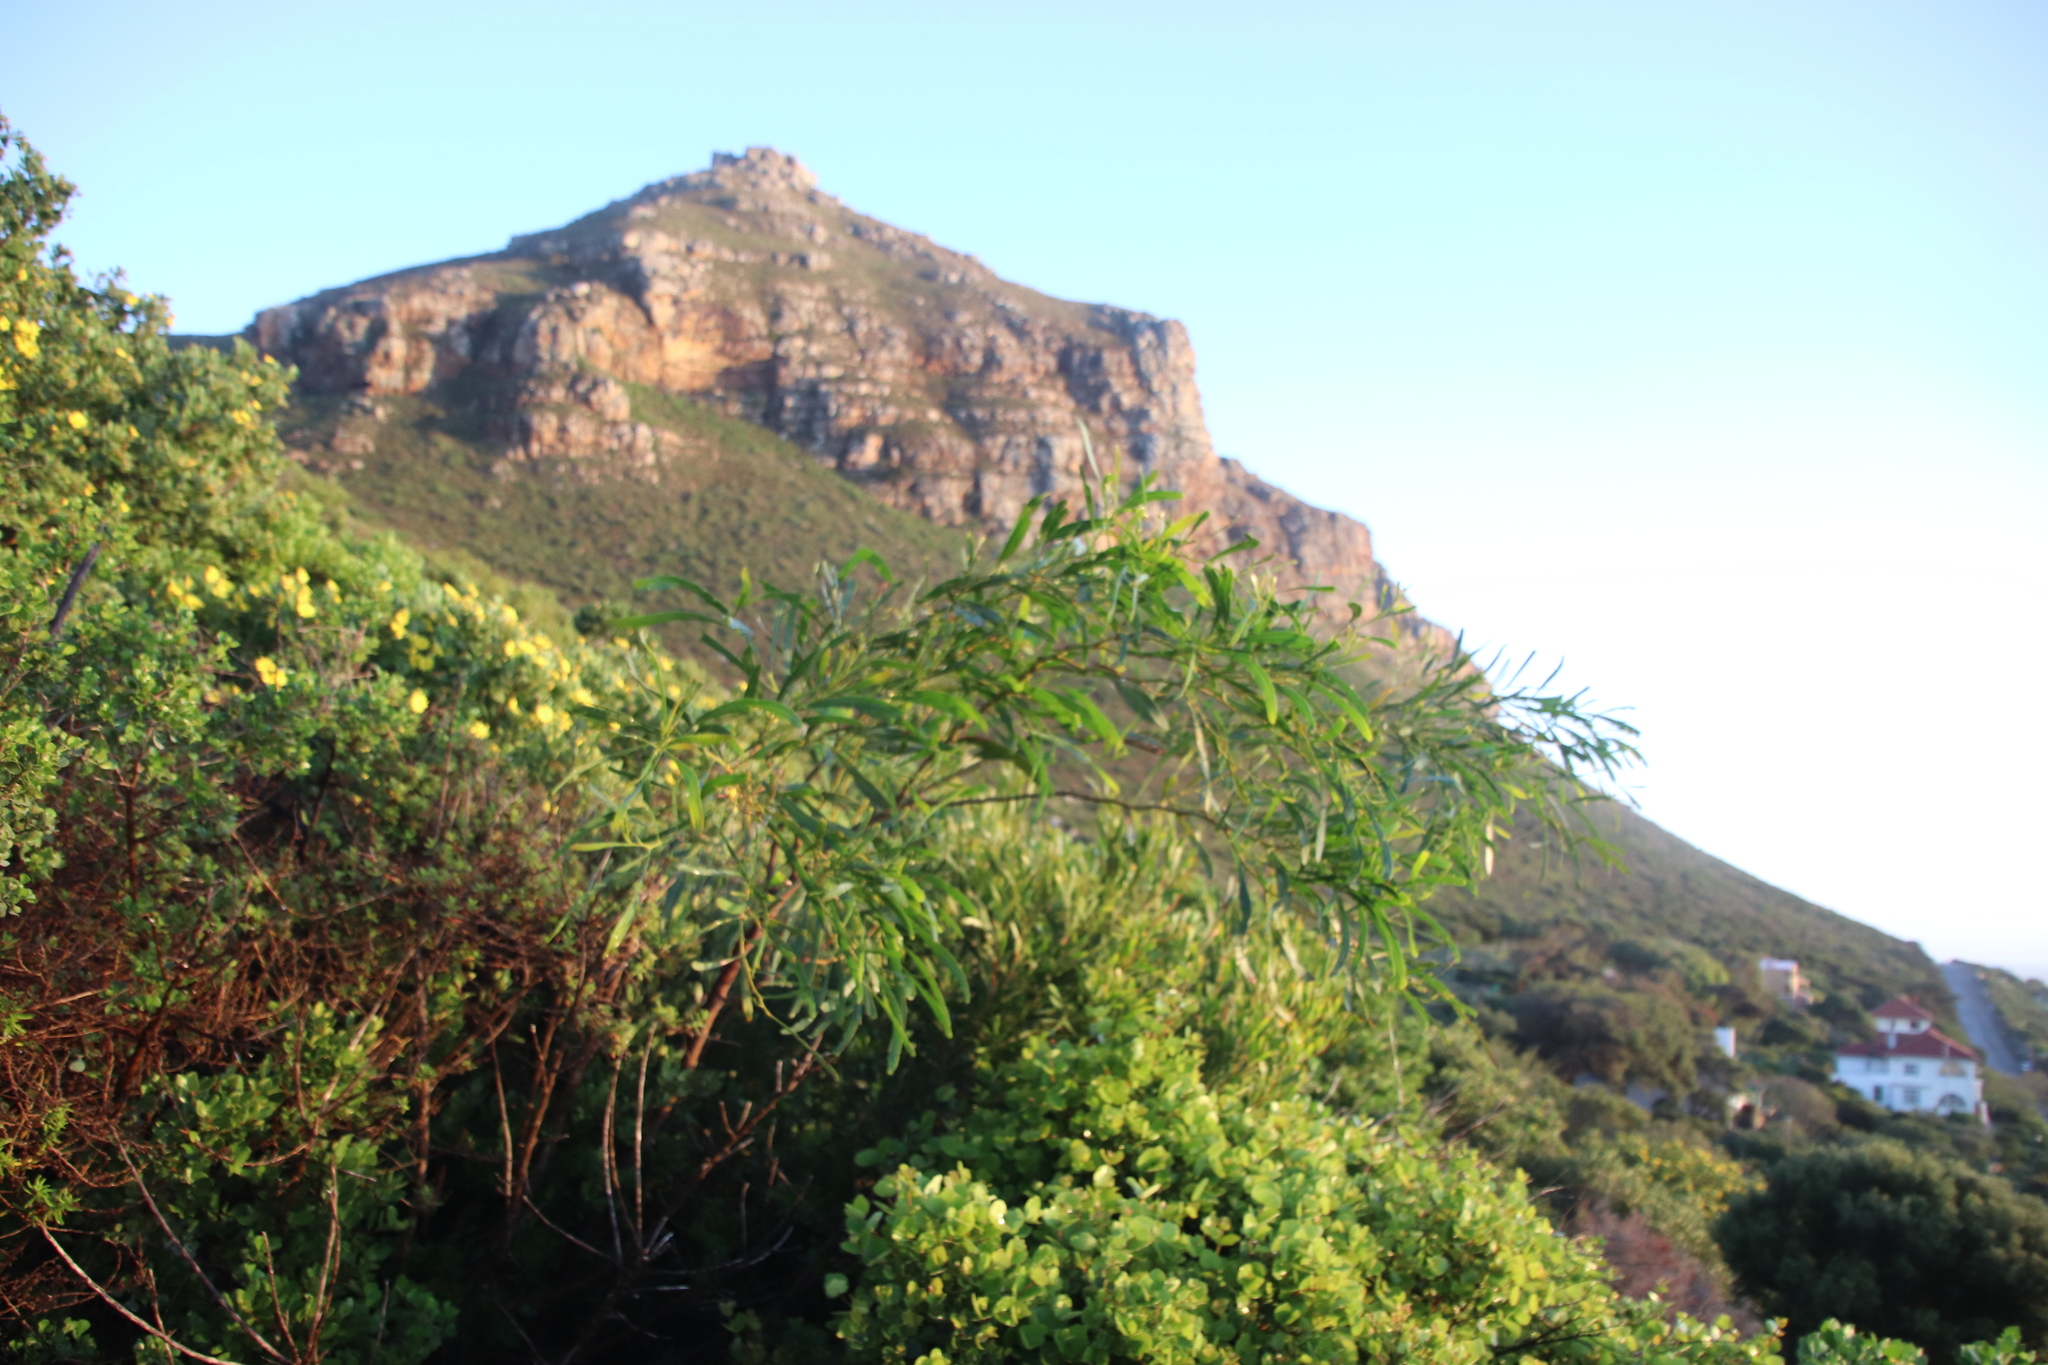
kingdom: Plantae
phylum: Tracheophyta
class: Magnoliopsida
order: Fabales
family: Fabaceae
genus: Acacia
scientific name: Acacia saligna
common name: Orange wattle
